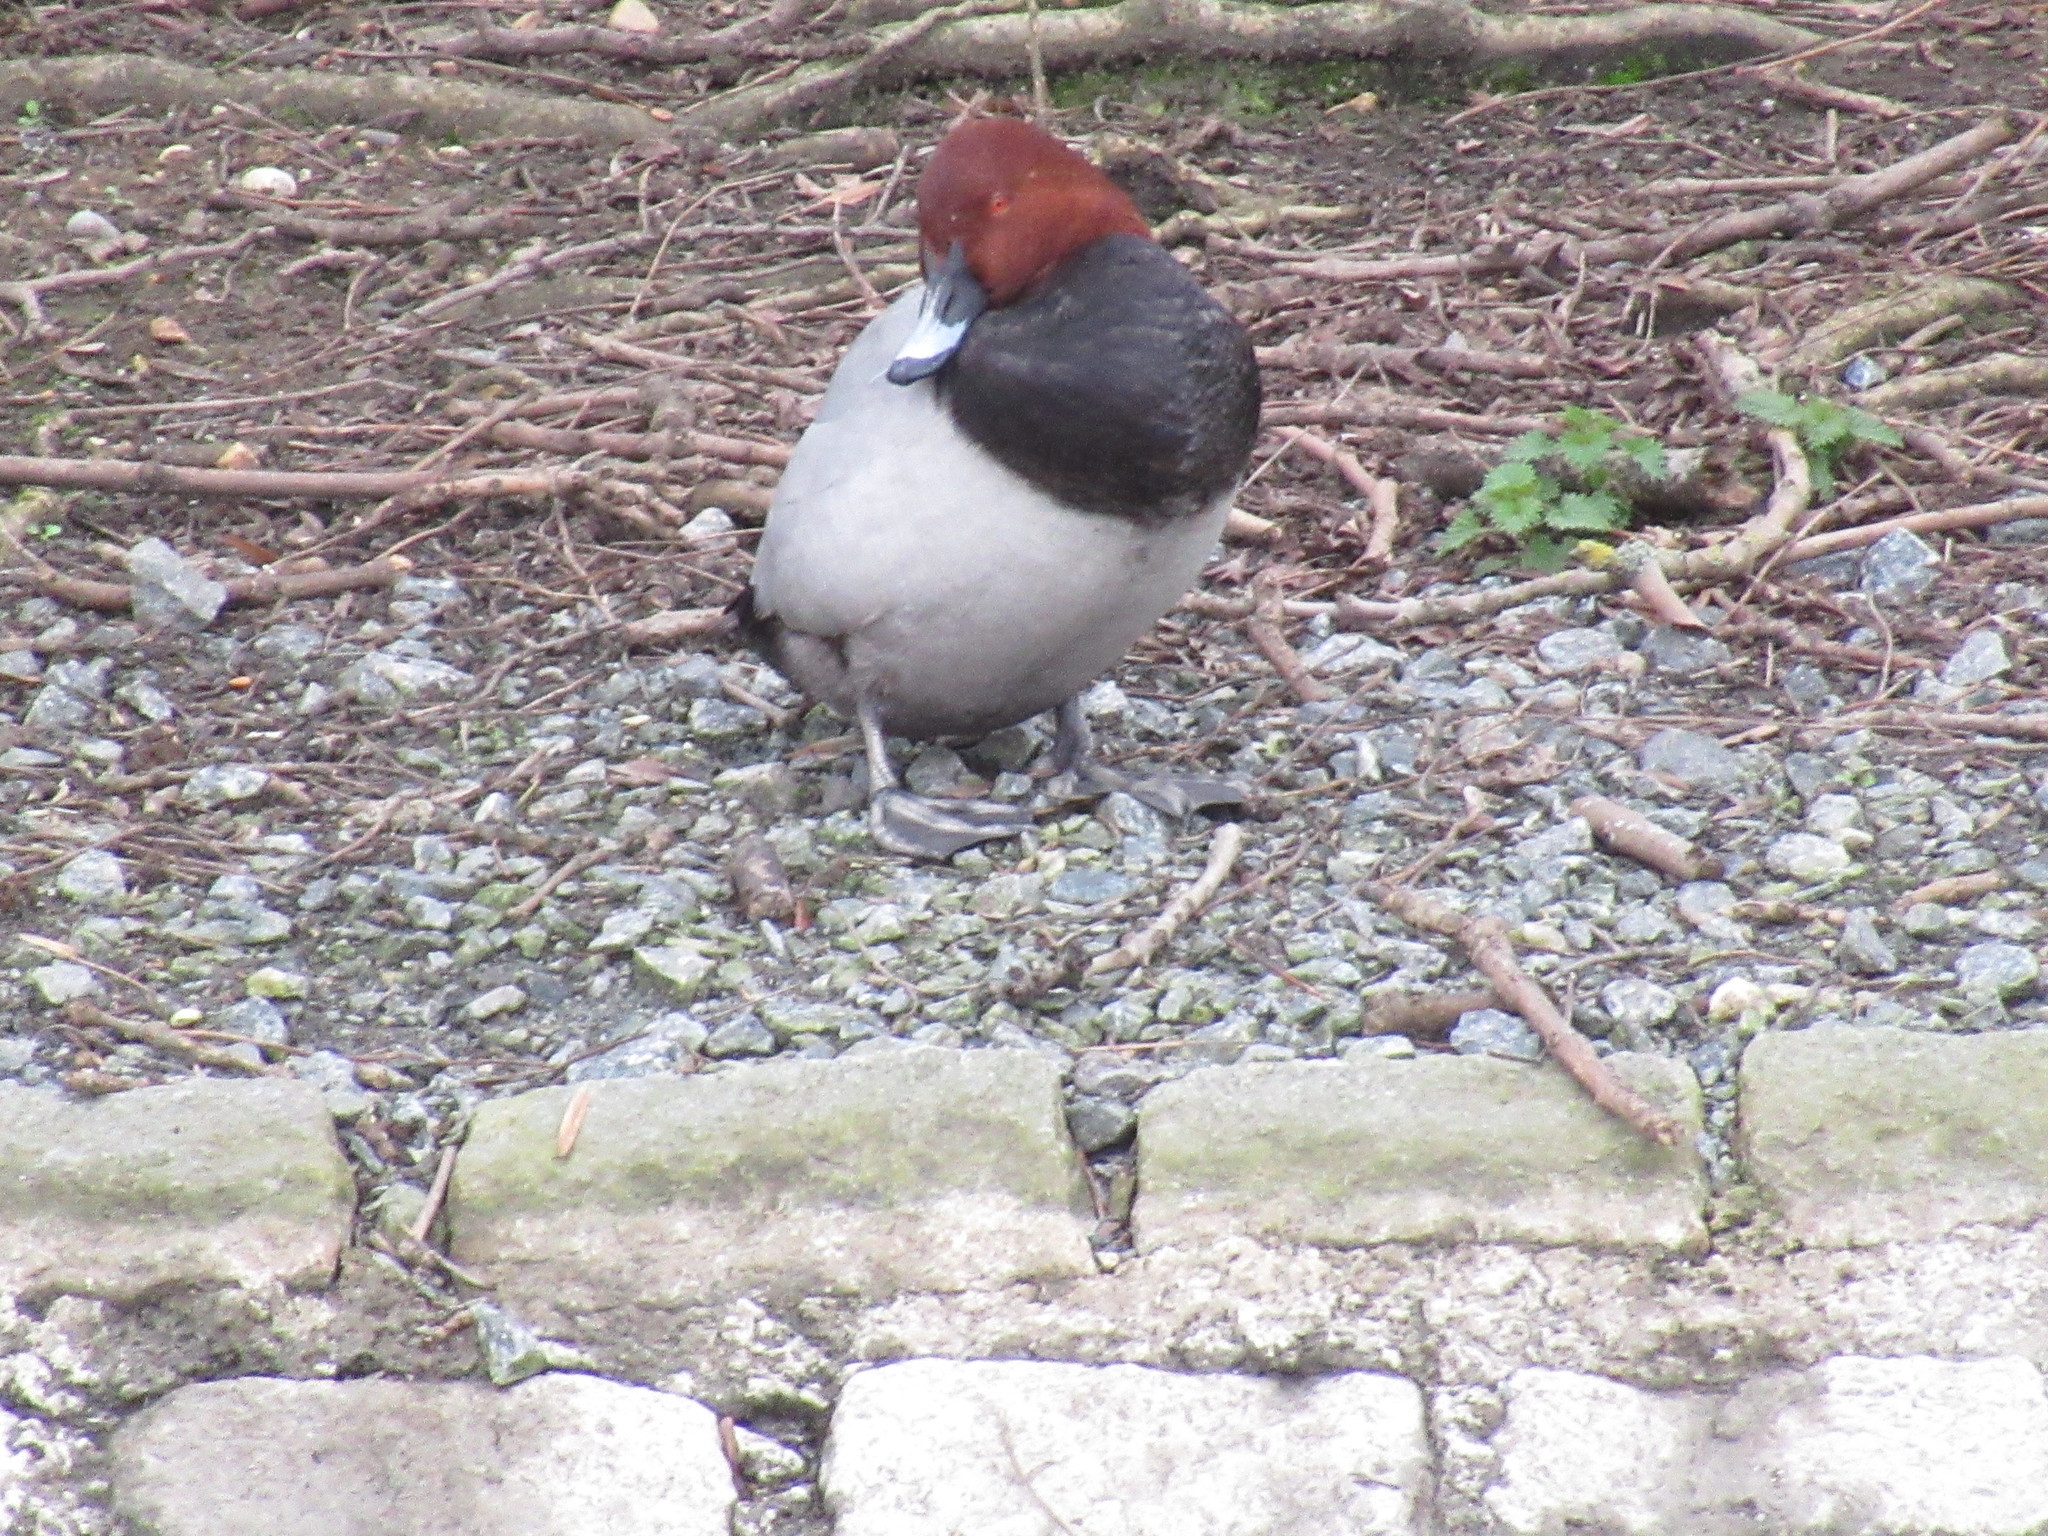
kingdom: Animalia
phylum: Chordata
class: Aves
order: Anseriformes
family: Anatidae
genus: Aythya
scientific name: Aythya ferina
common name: Common pochard
